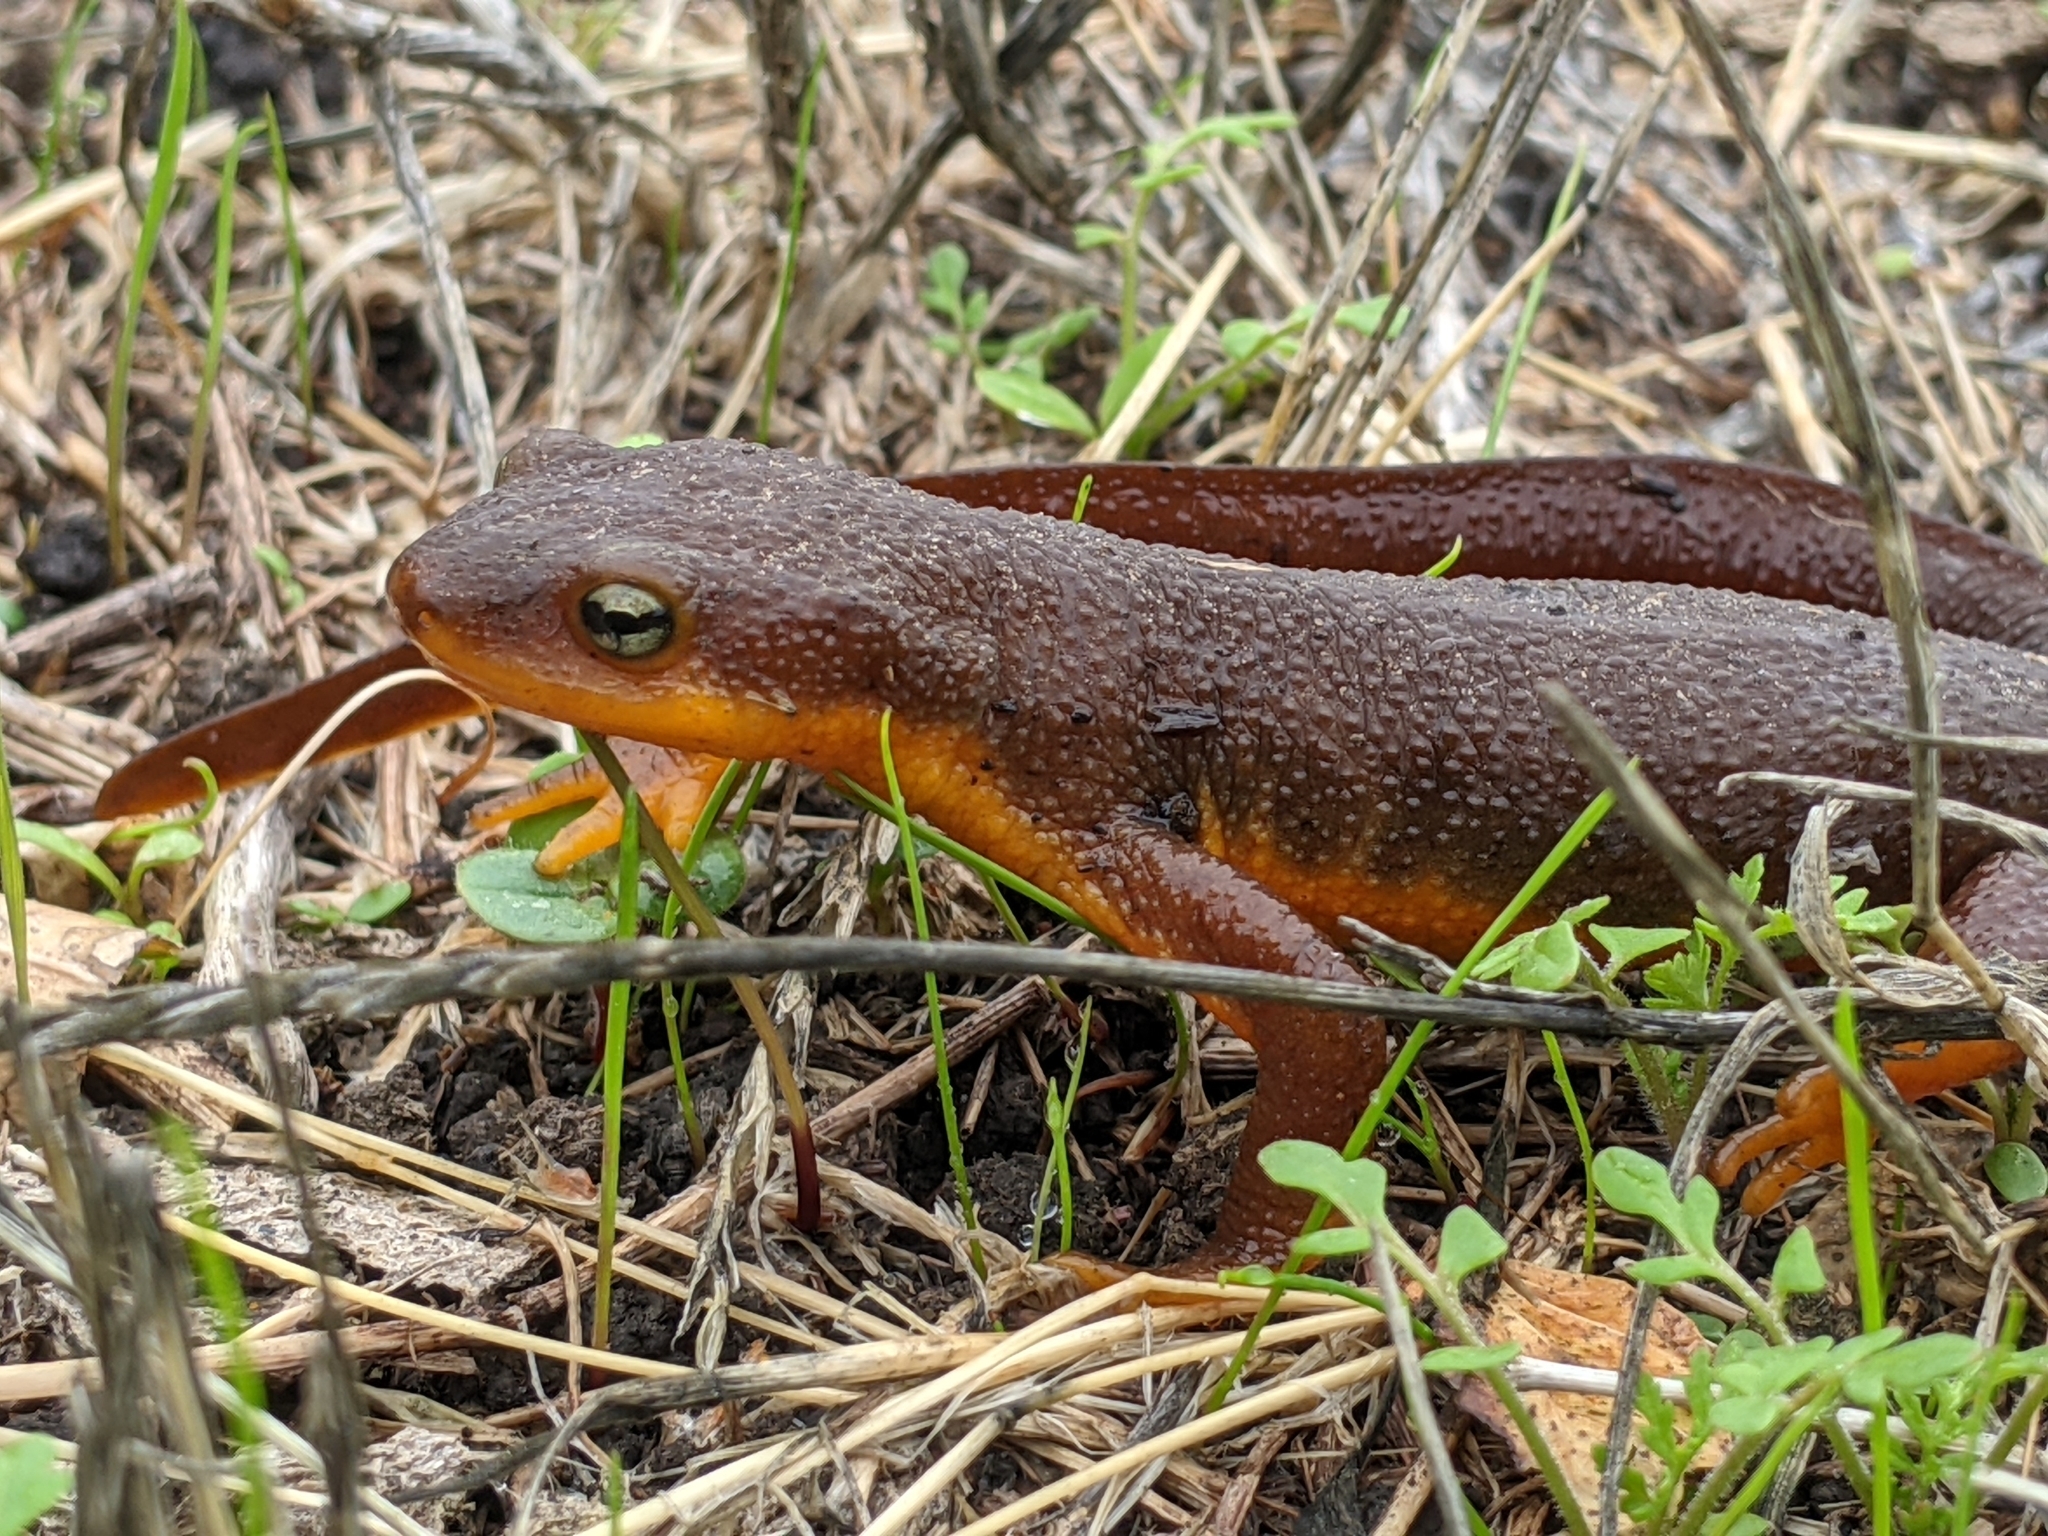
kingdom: Animalia
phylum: Chordata
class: Amphibia
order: Caudata
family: Salamandridae
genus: Taricha
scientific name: Taricha torosa
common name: California newt
